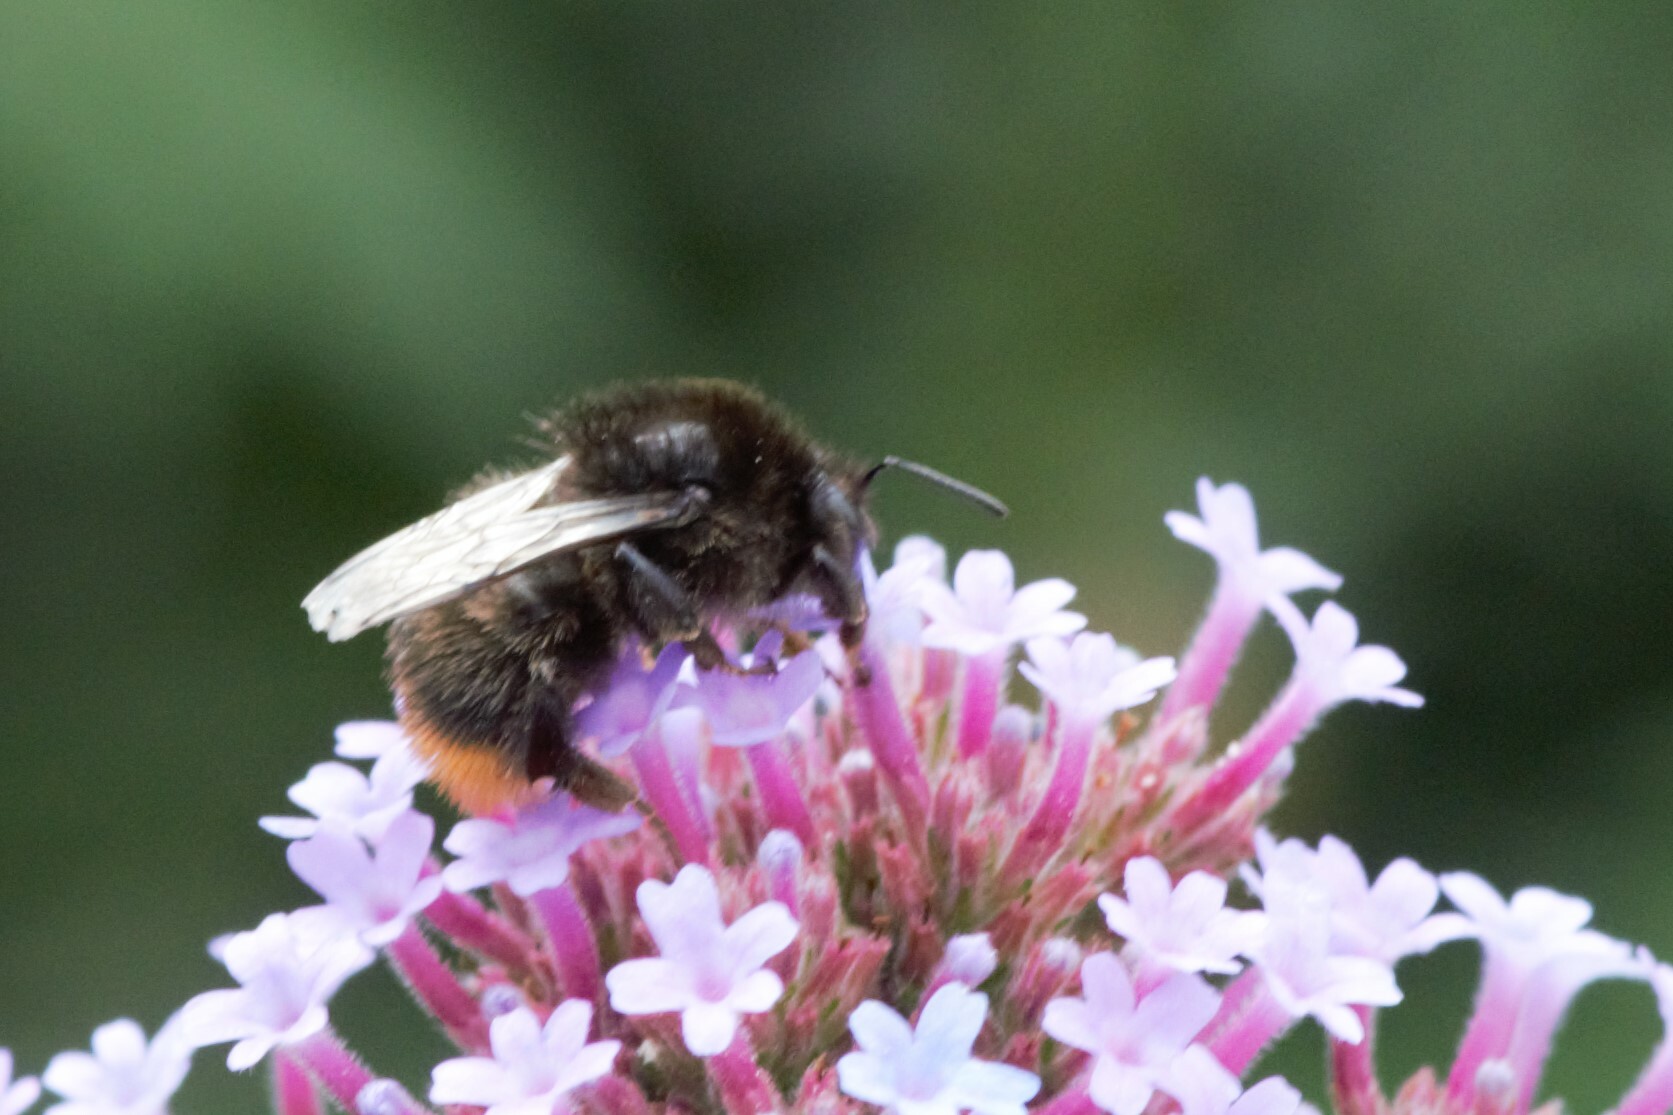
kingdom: Animalia
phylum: Arthropoda
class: Insecta
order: Hymenoptera
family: Apidae
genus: Bombus
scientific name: Bombus lapidarius
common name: Large red-tailed humble-bee
